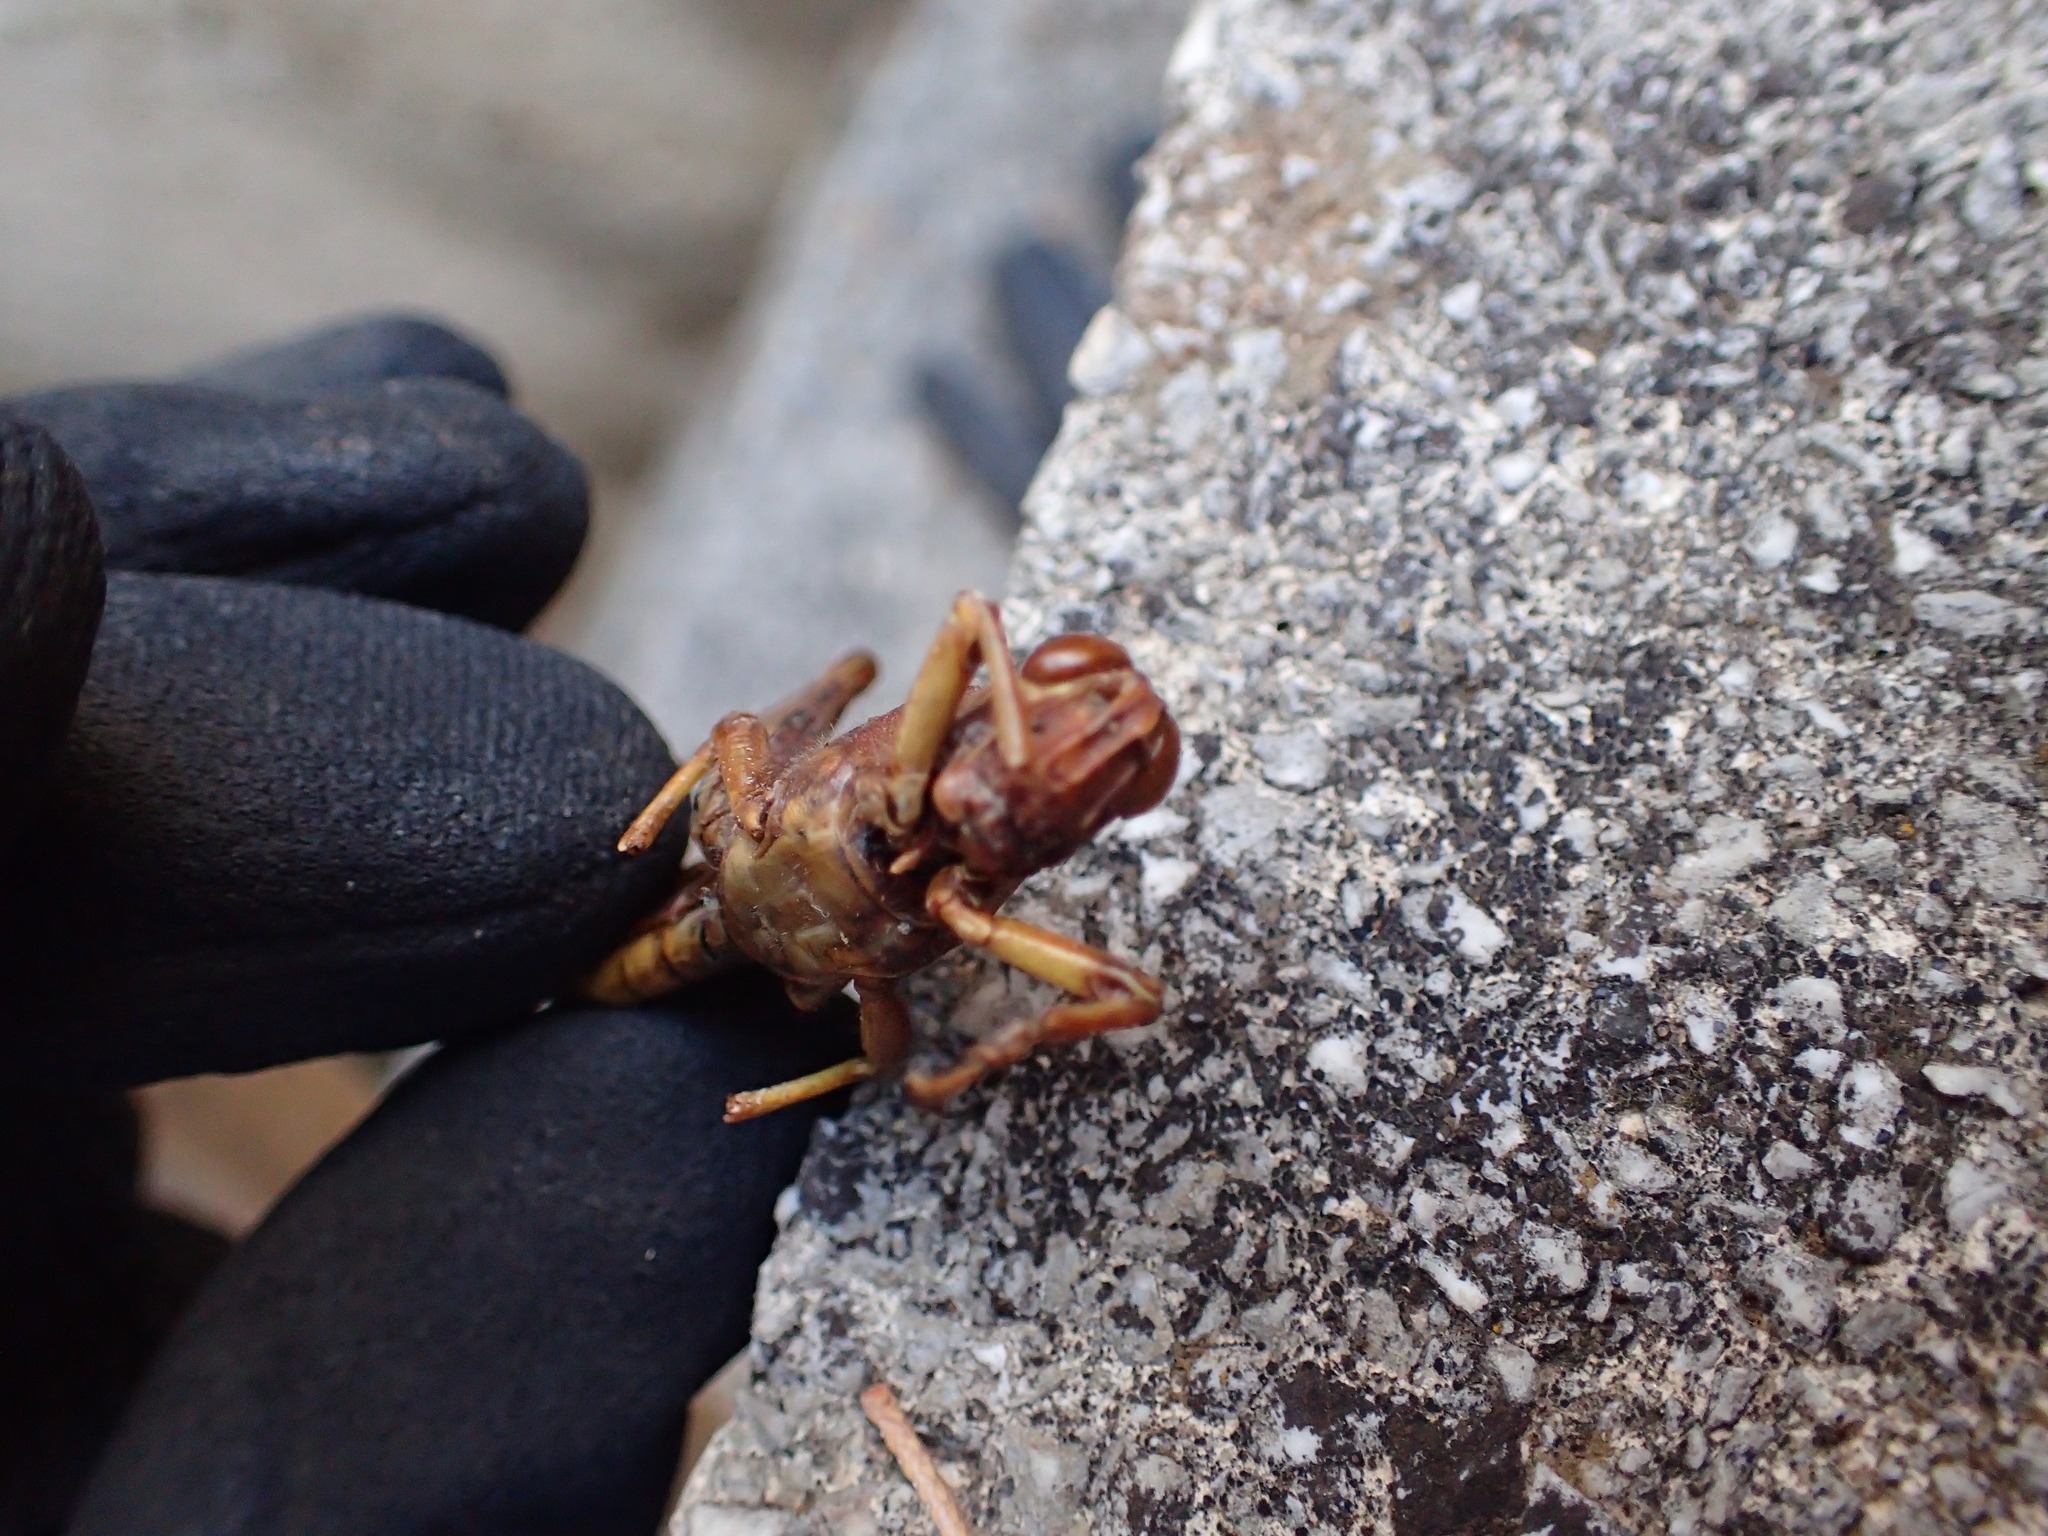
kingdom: Animalia
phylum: Arthropoda
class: Insecta
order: Orthoptera
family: Acrididae
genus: Anacridium
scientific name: Anacridium aegyptium
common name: Egyptian grasshopper
